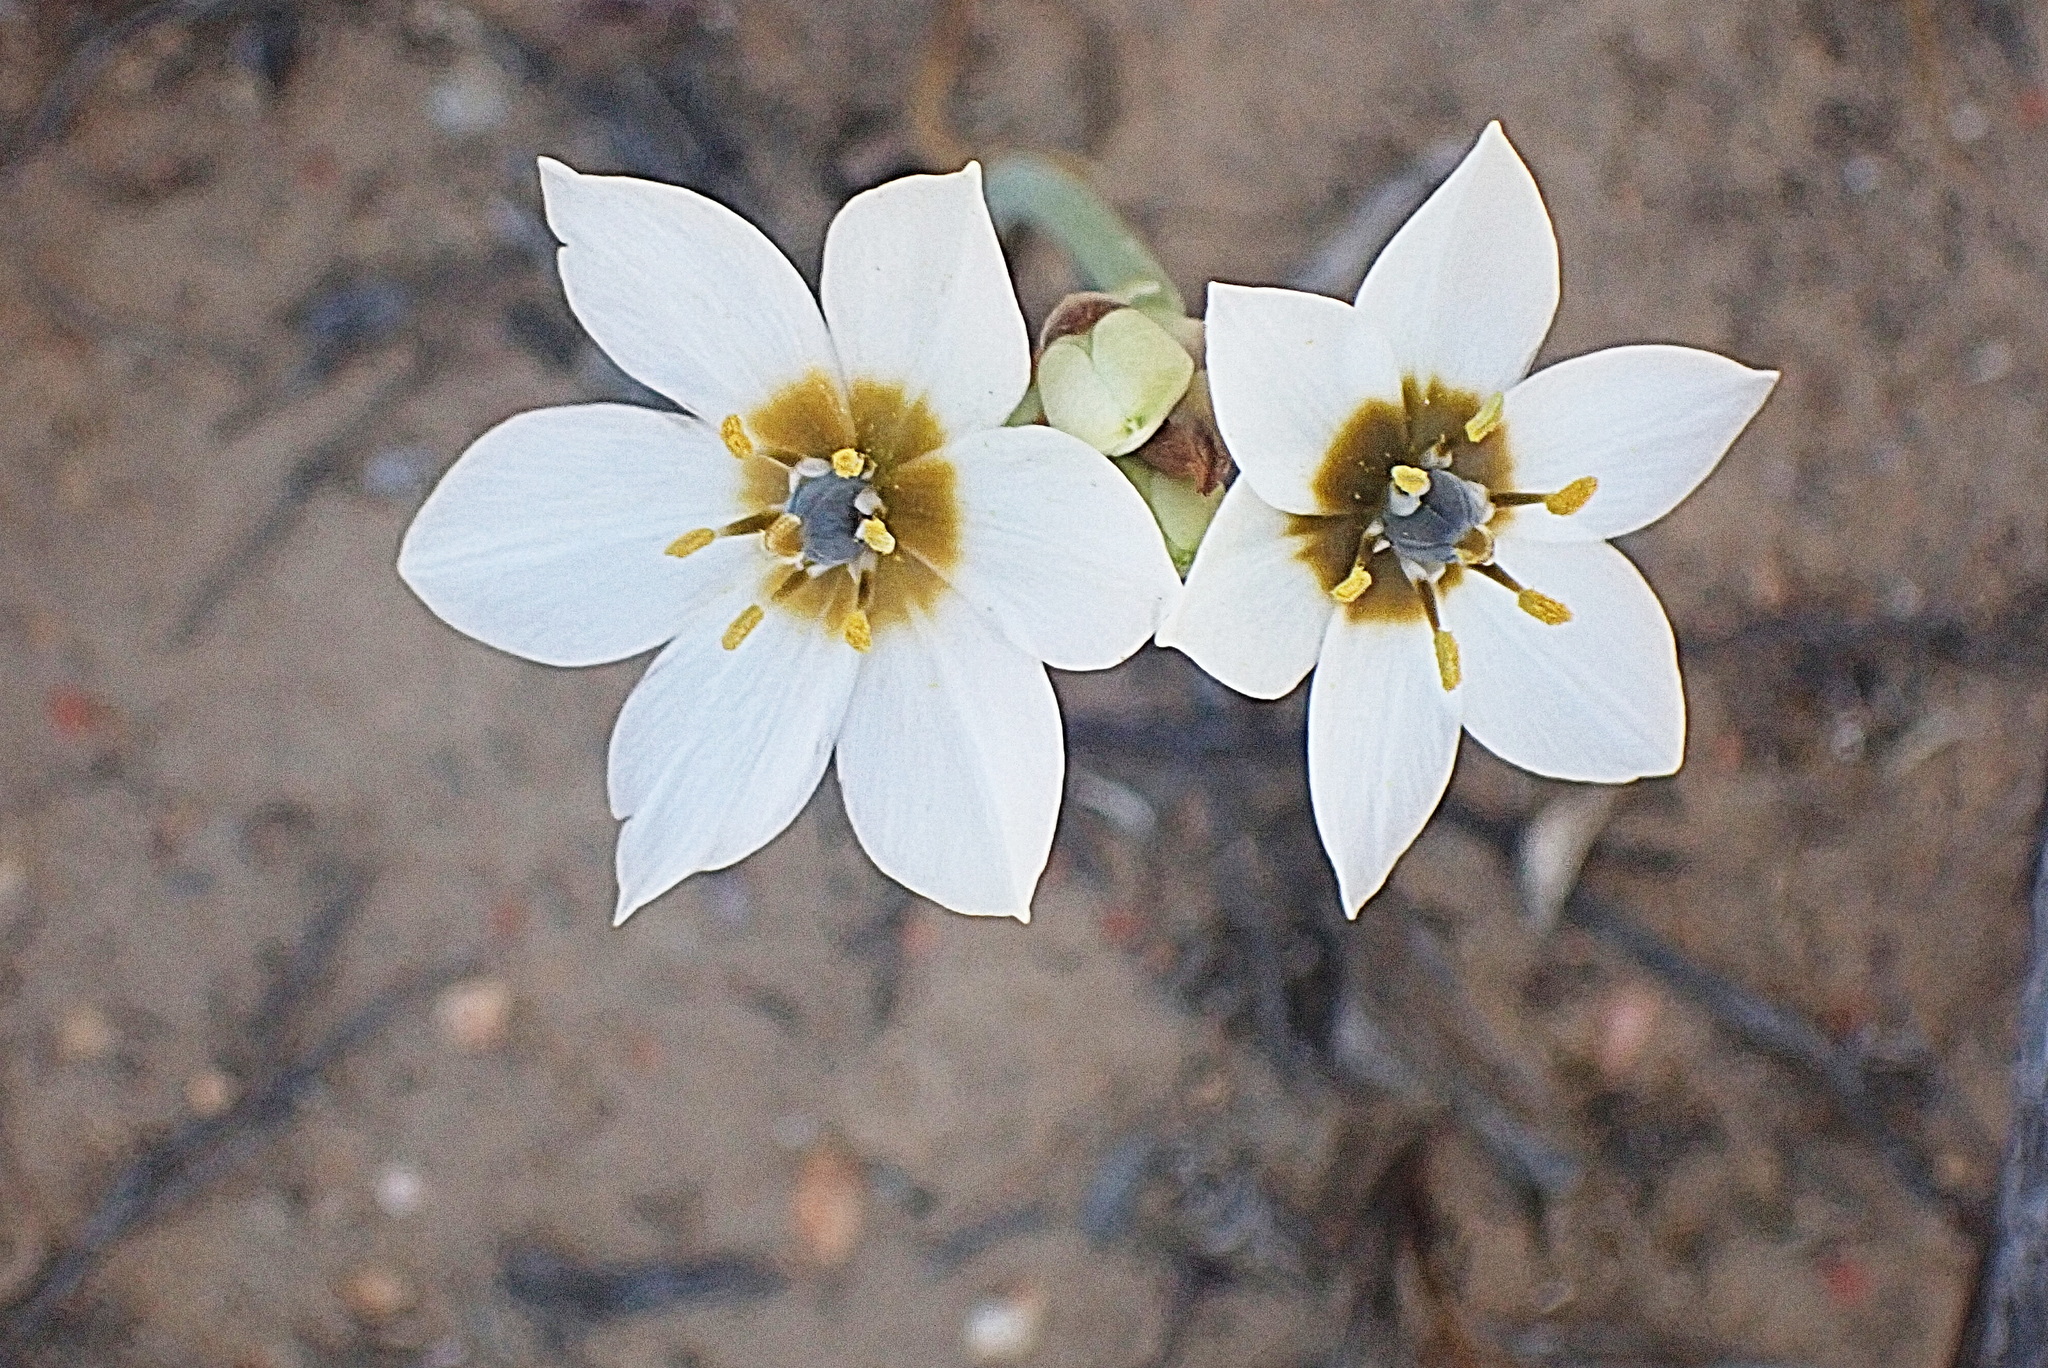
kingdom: Plantae
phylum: Tracheophyta
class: Liliopsida
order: Asparagales
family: Asparagaceae
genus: Ornithogalum
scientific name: Ornithogalum dubium
